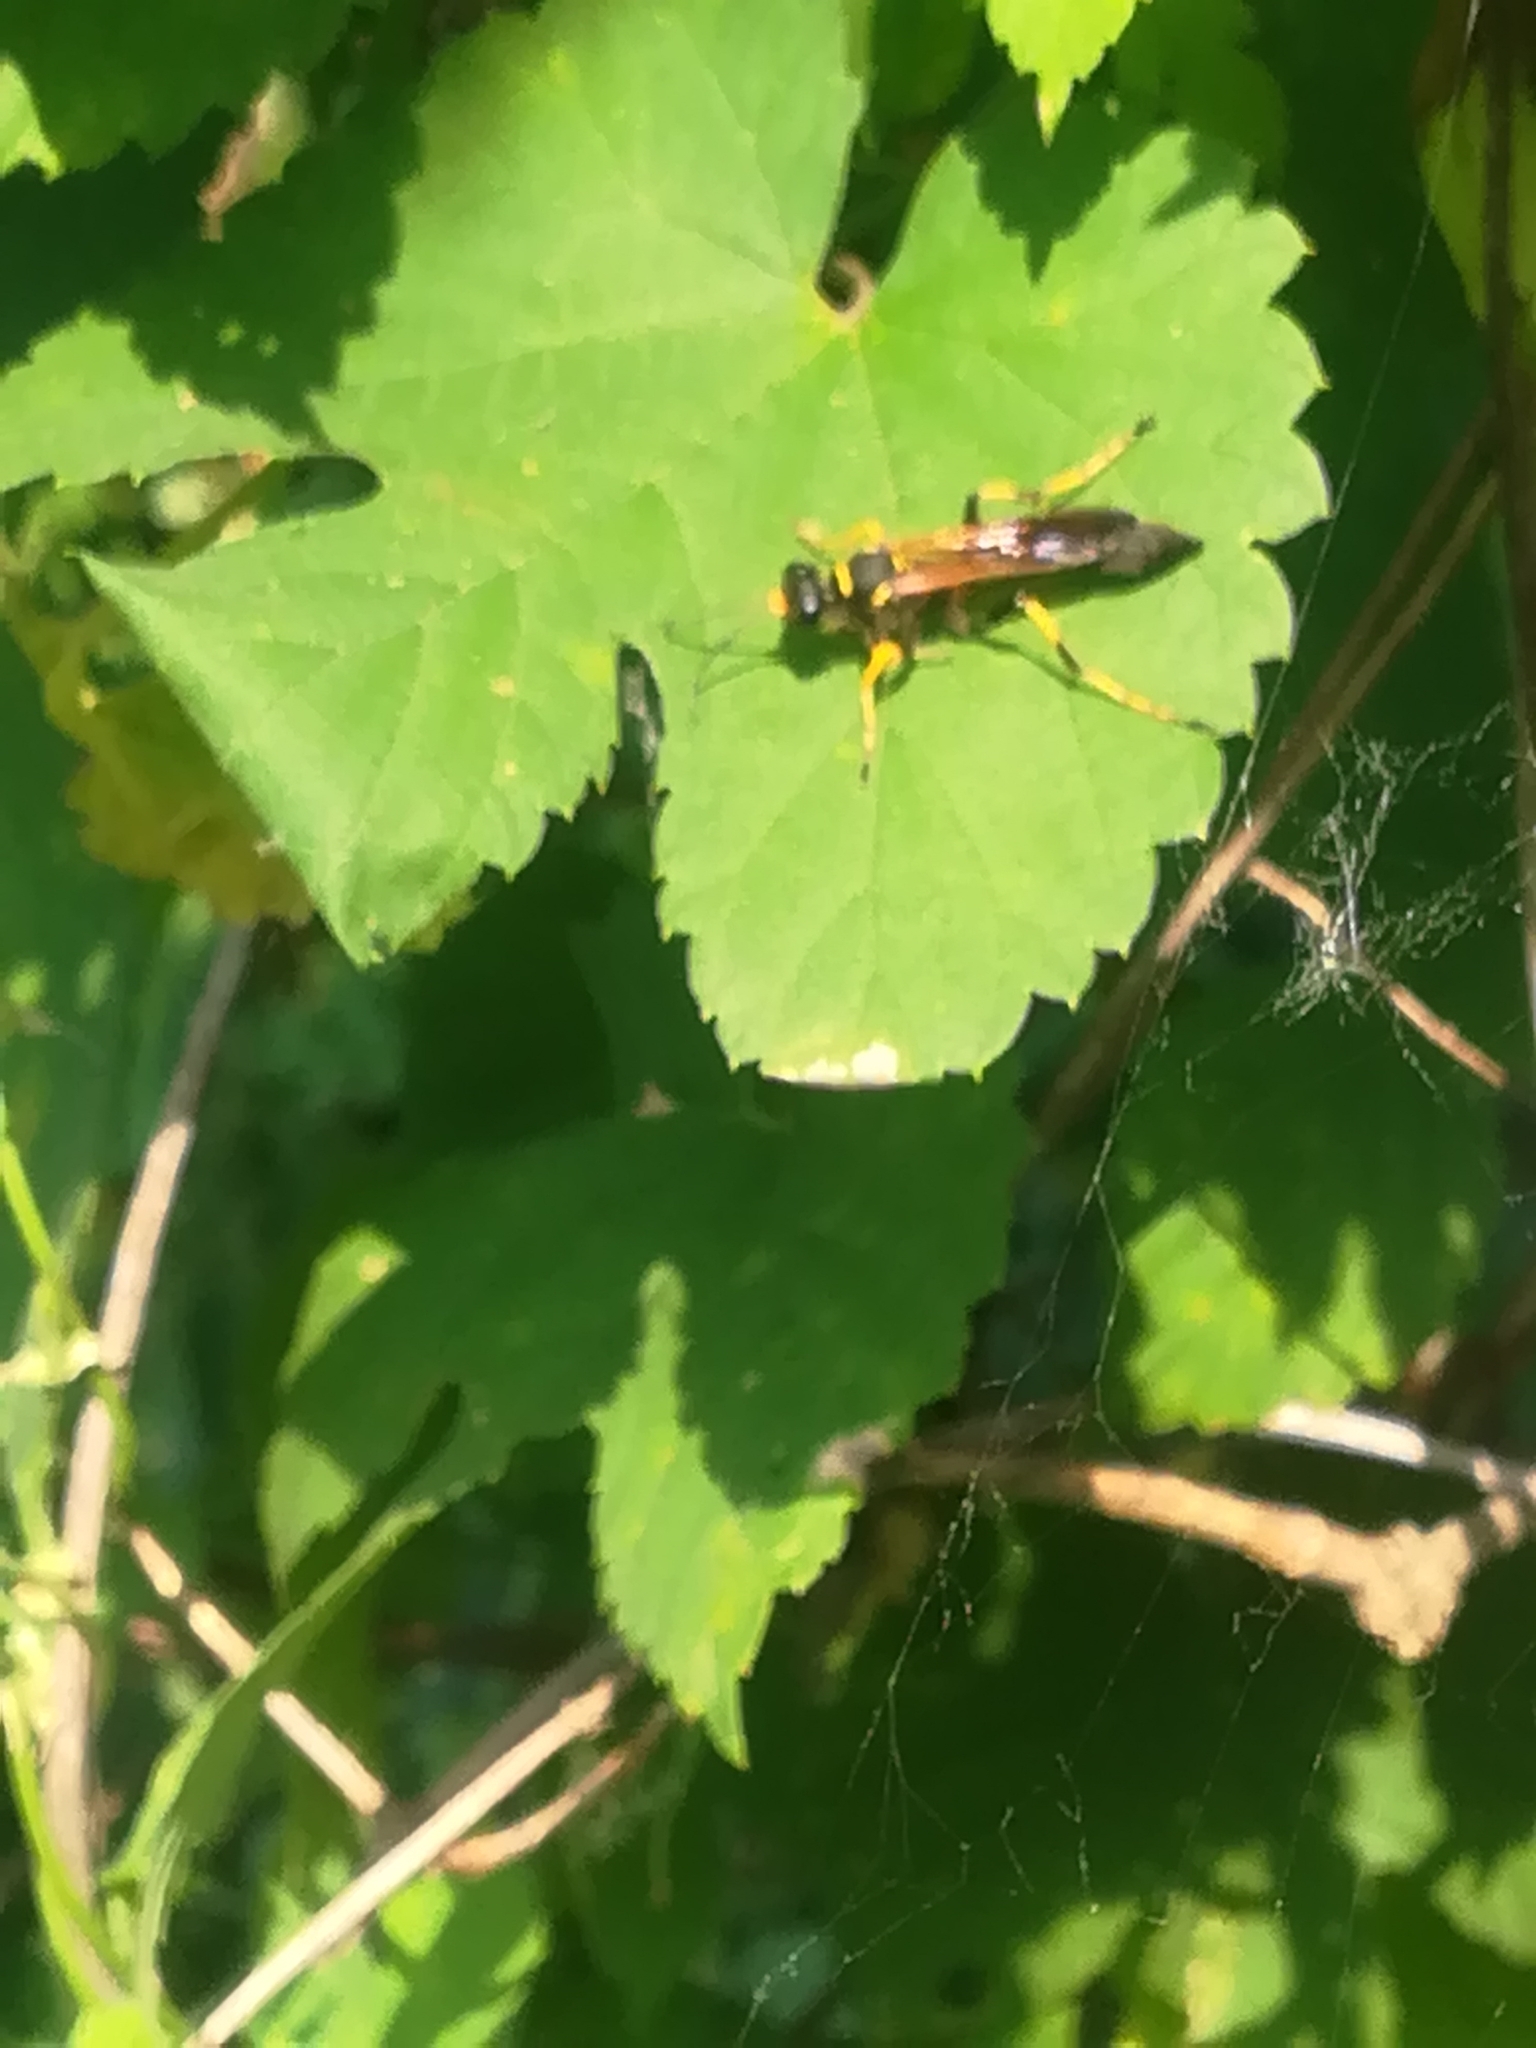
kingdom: Animalia
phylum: Arthropoda
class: Insecta
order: Hymenoptera
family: Sphecidae
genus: Sceliphron
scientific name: Sceliphron caementarium
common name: Mud dauber
